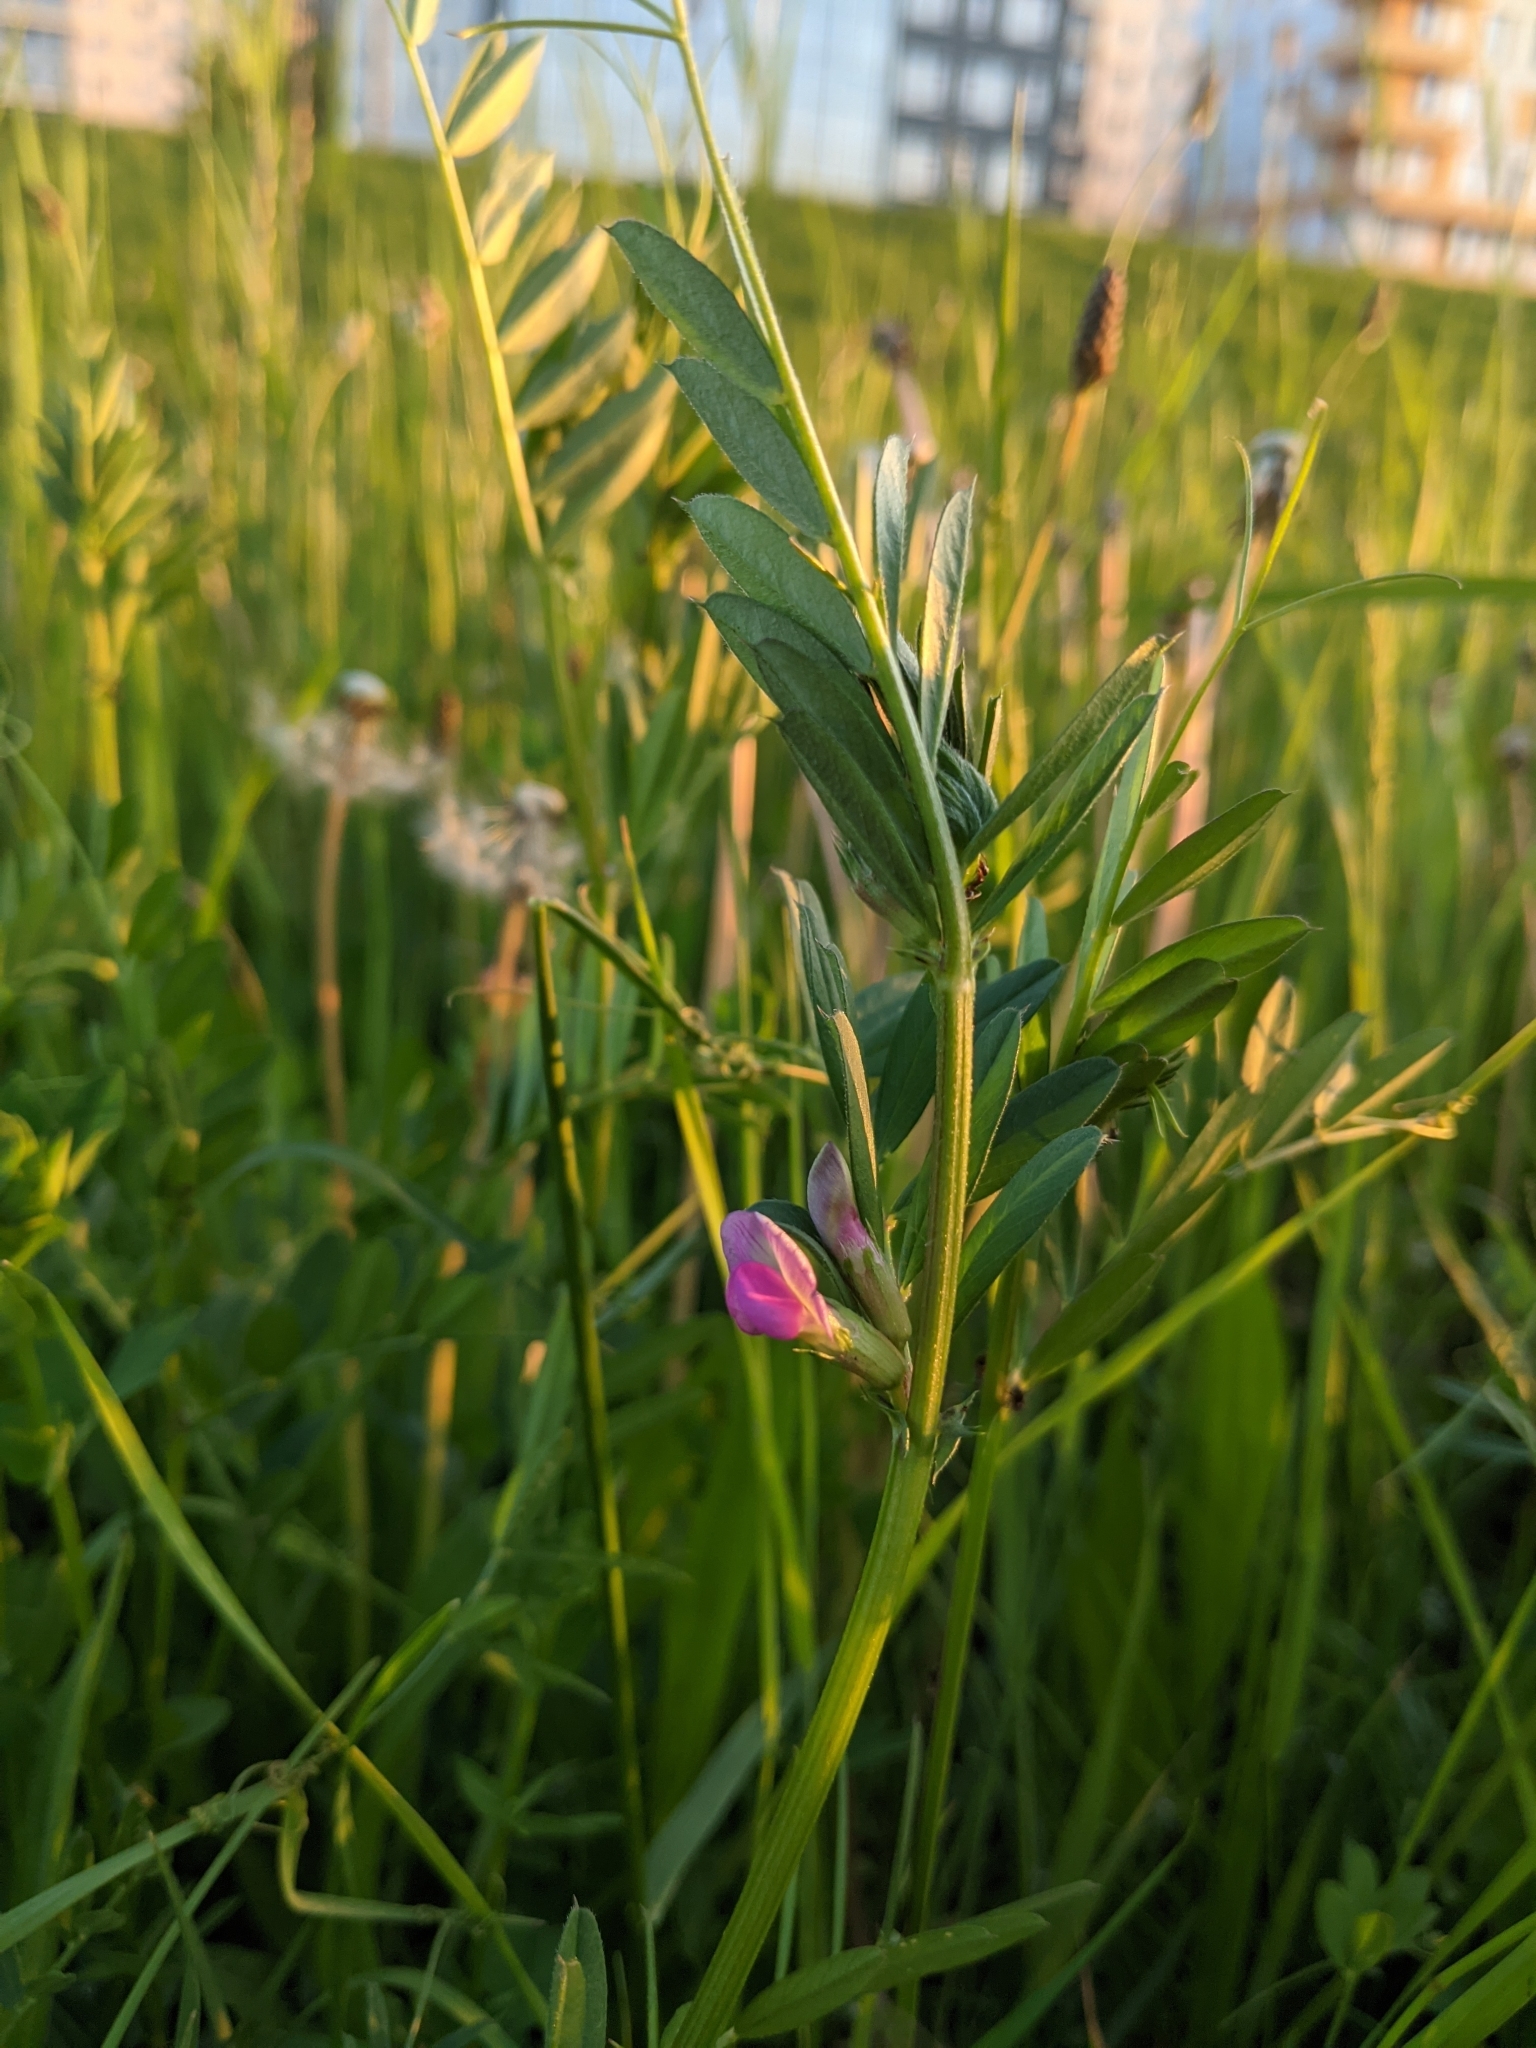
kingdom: Plantae
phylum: Tracheophyta
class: Magnoliopsida
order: Fabales
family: Fabaceae
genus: Vicia
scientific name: Vicia sativa
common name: Garden vetch
